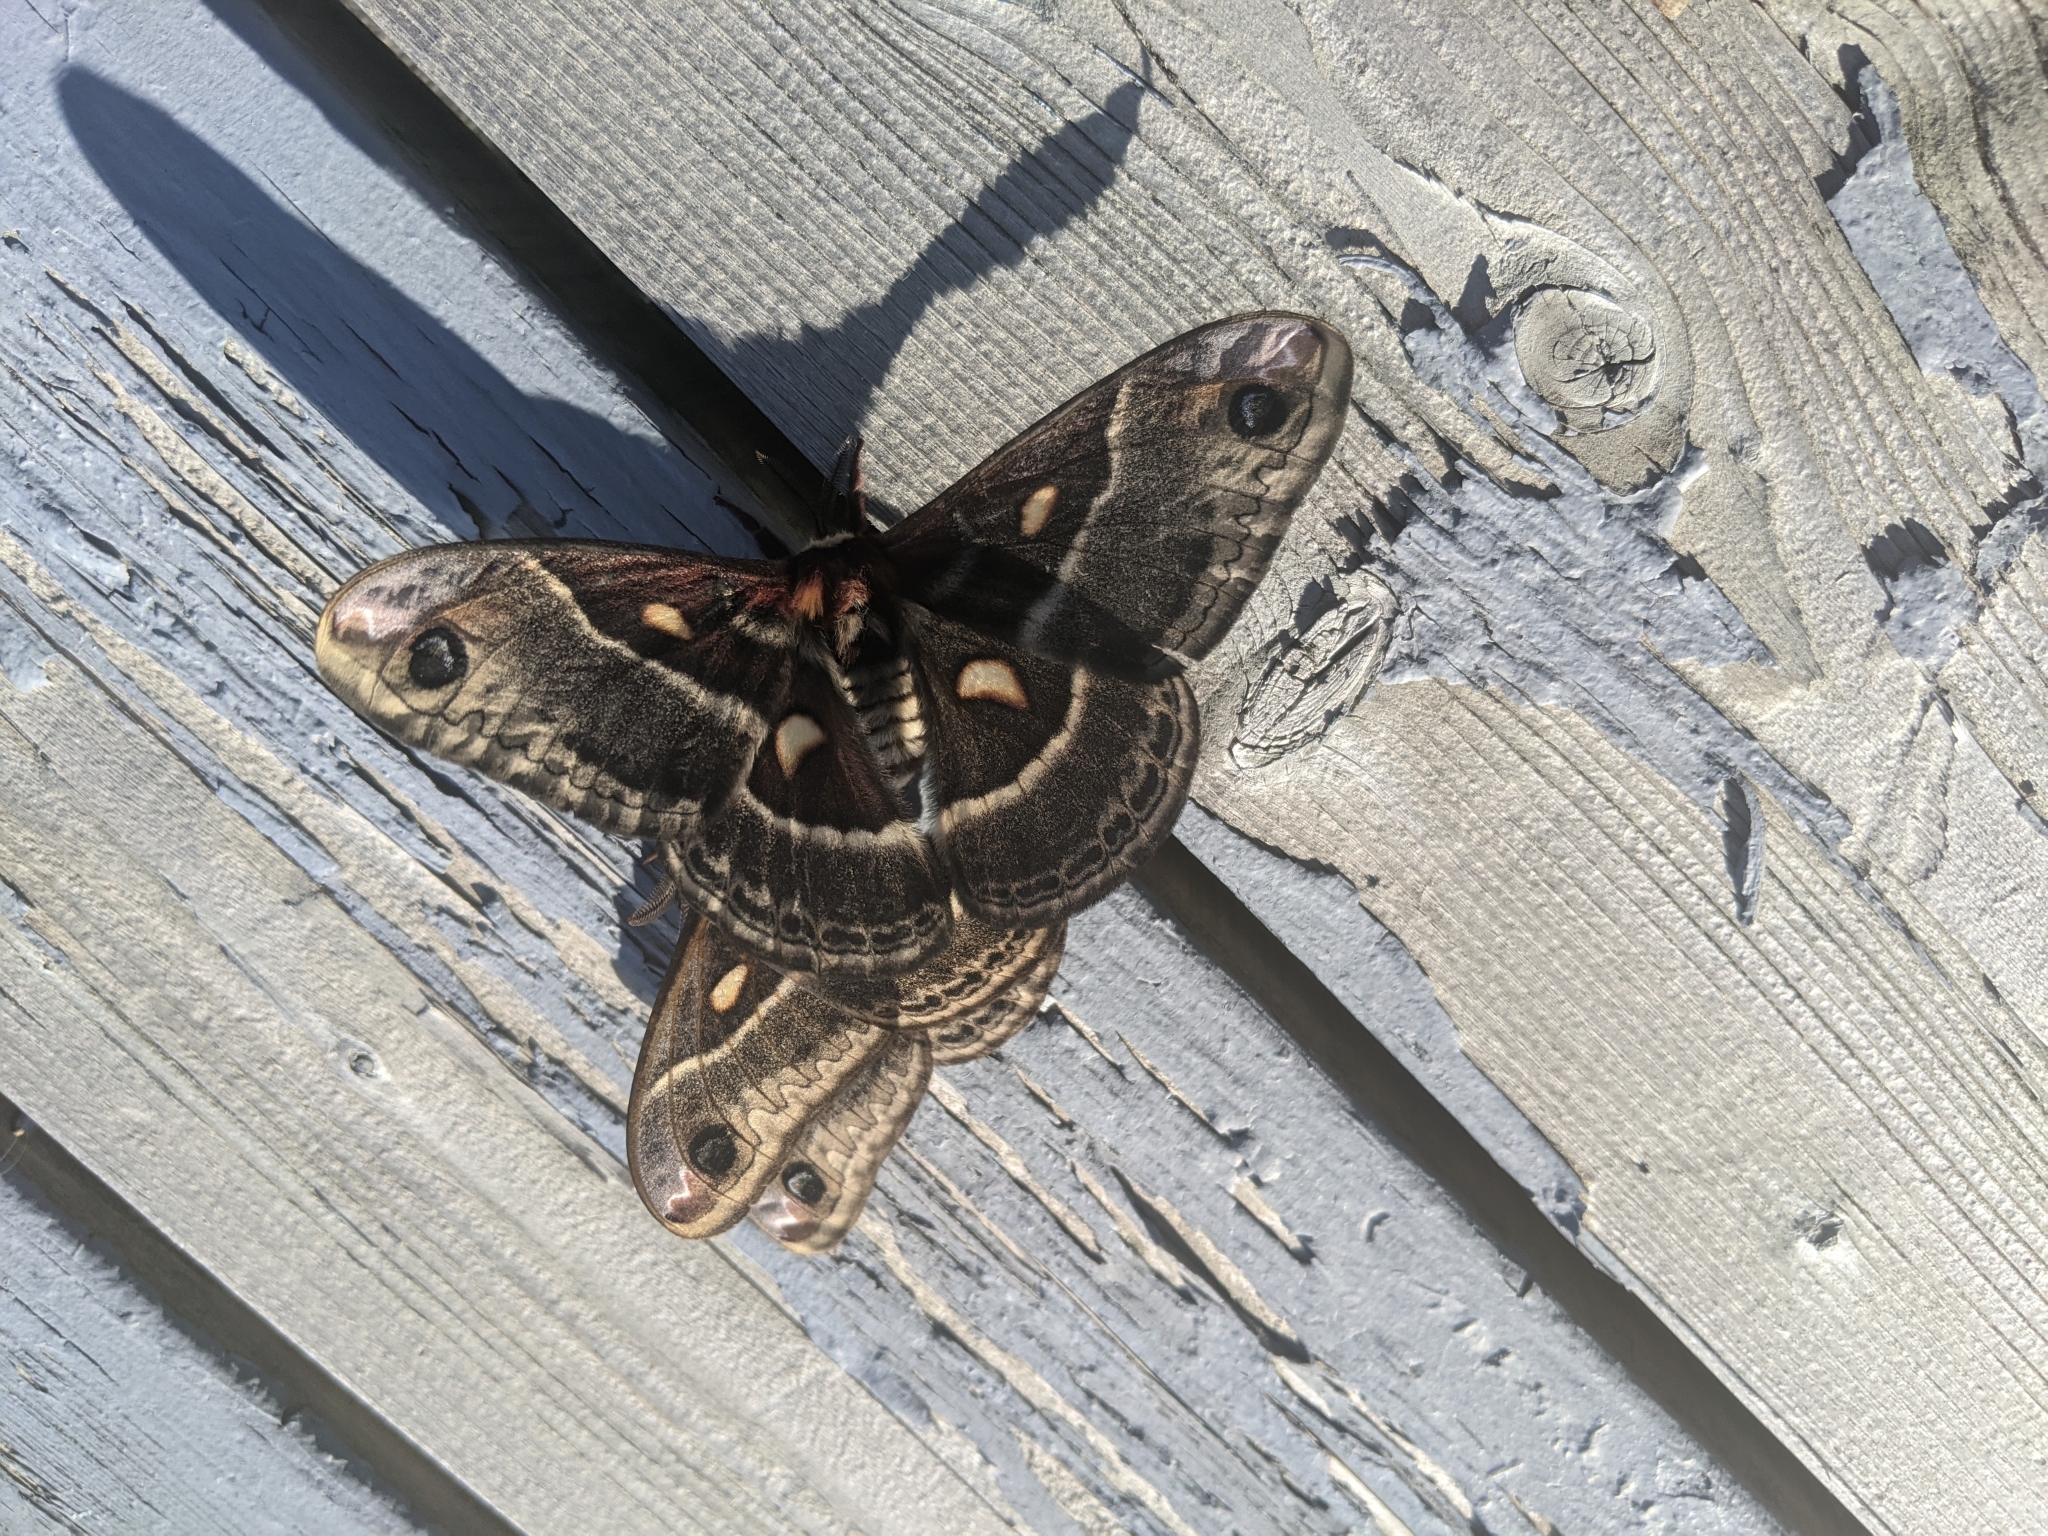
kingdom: Animalia
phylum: Arthropoda
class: Insecta
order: Lepidoptera
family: Saturniidae
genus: Hyalophora
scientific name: Hyalophora columbia
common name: Columbia silkmoth
